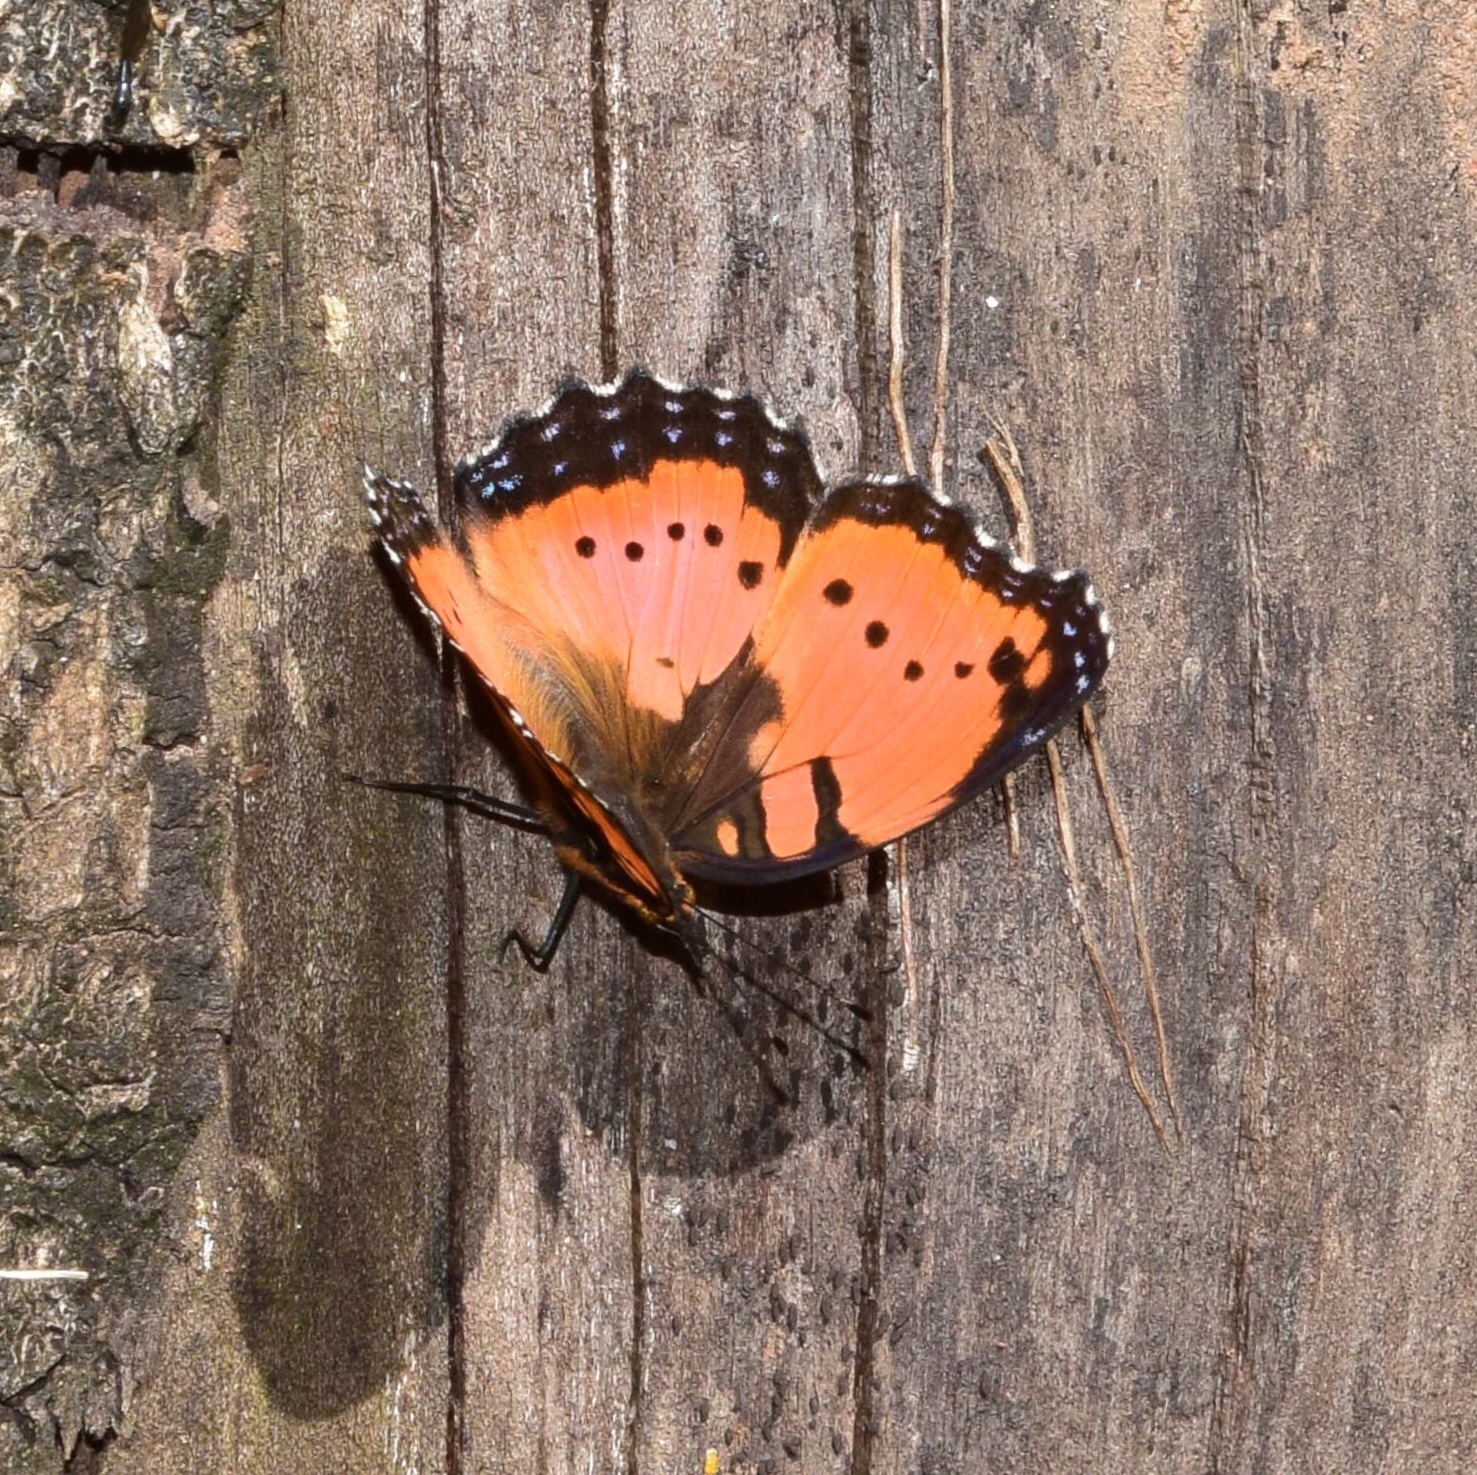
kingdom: Animalia
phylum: Arthropoda
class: Insecta
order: Lepidoptera
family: Nymphalidae
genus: Precis
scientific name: Precis octavia
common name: Gaudy commodore
